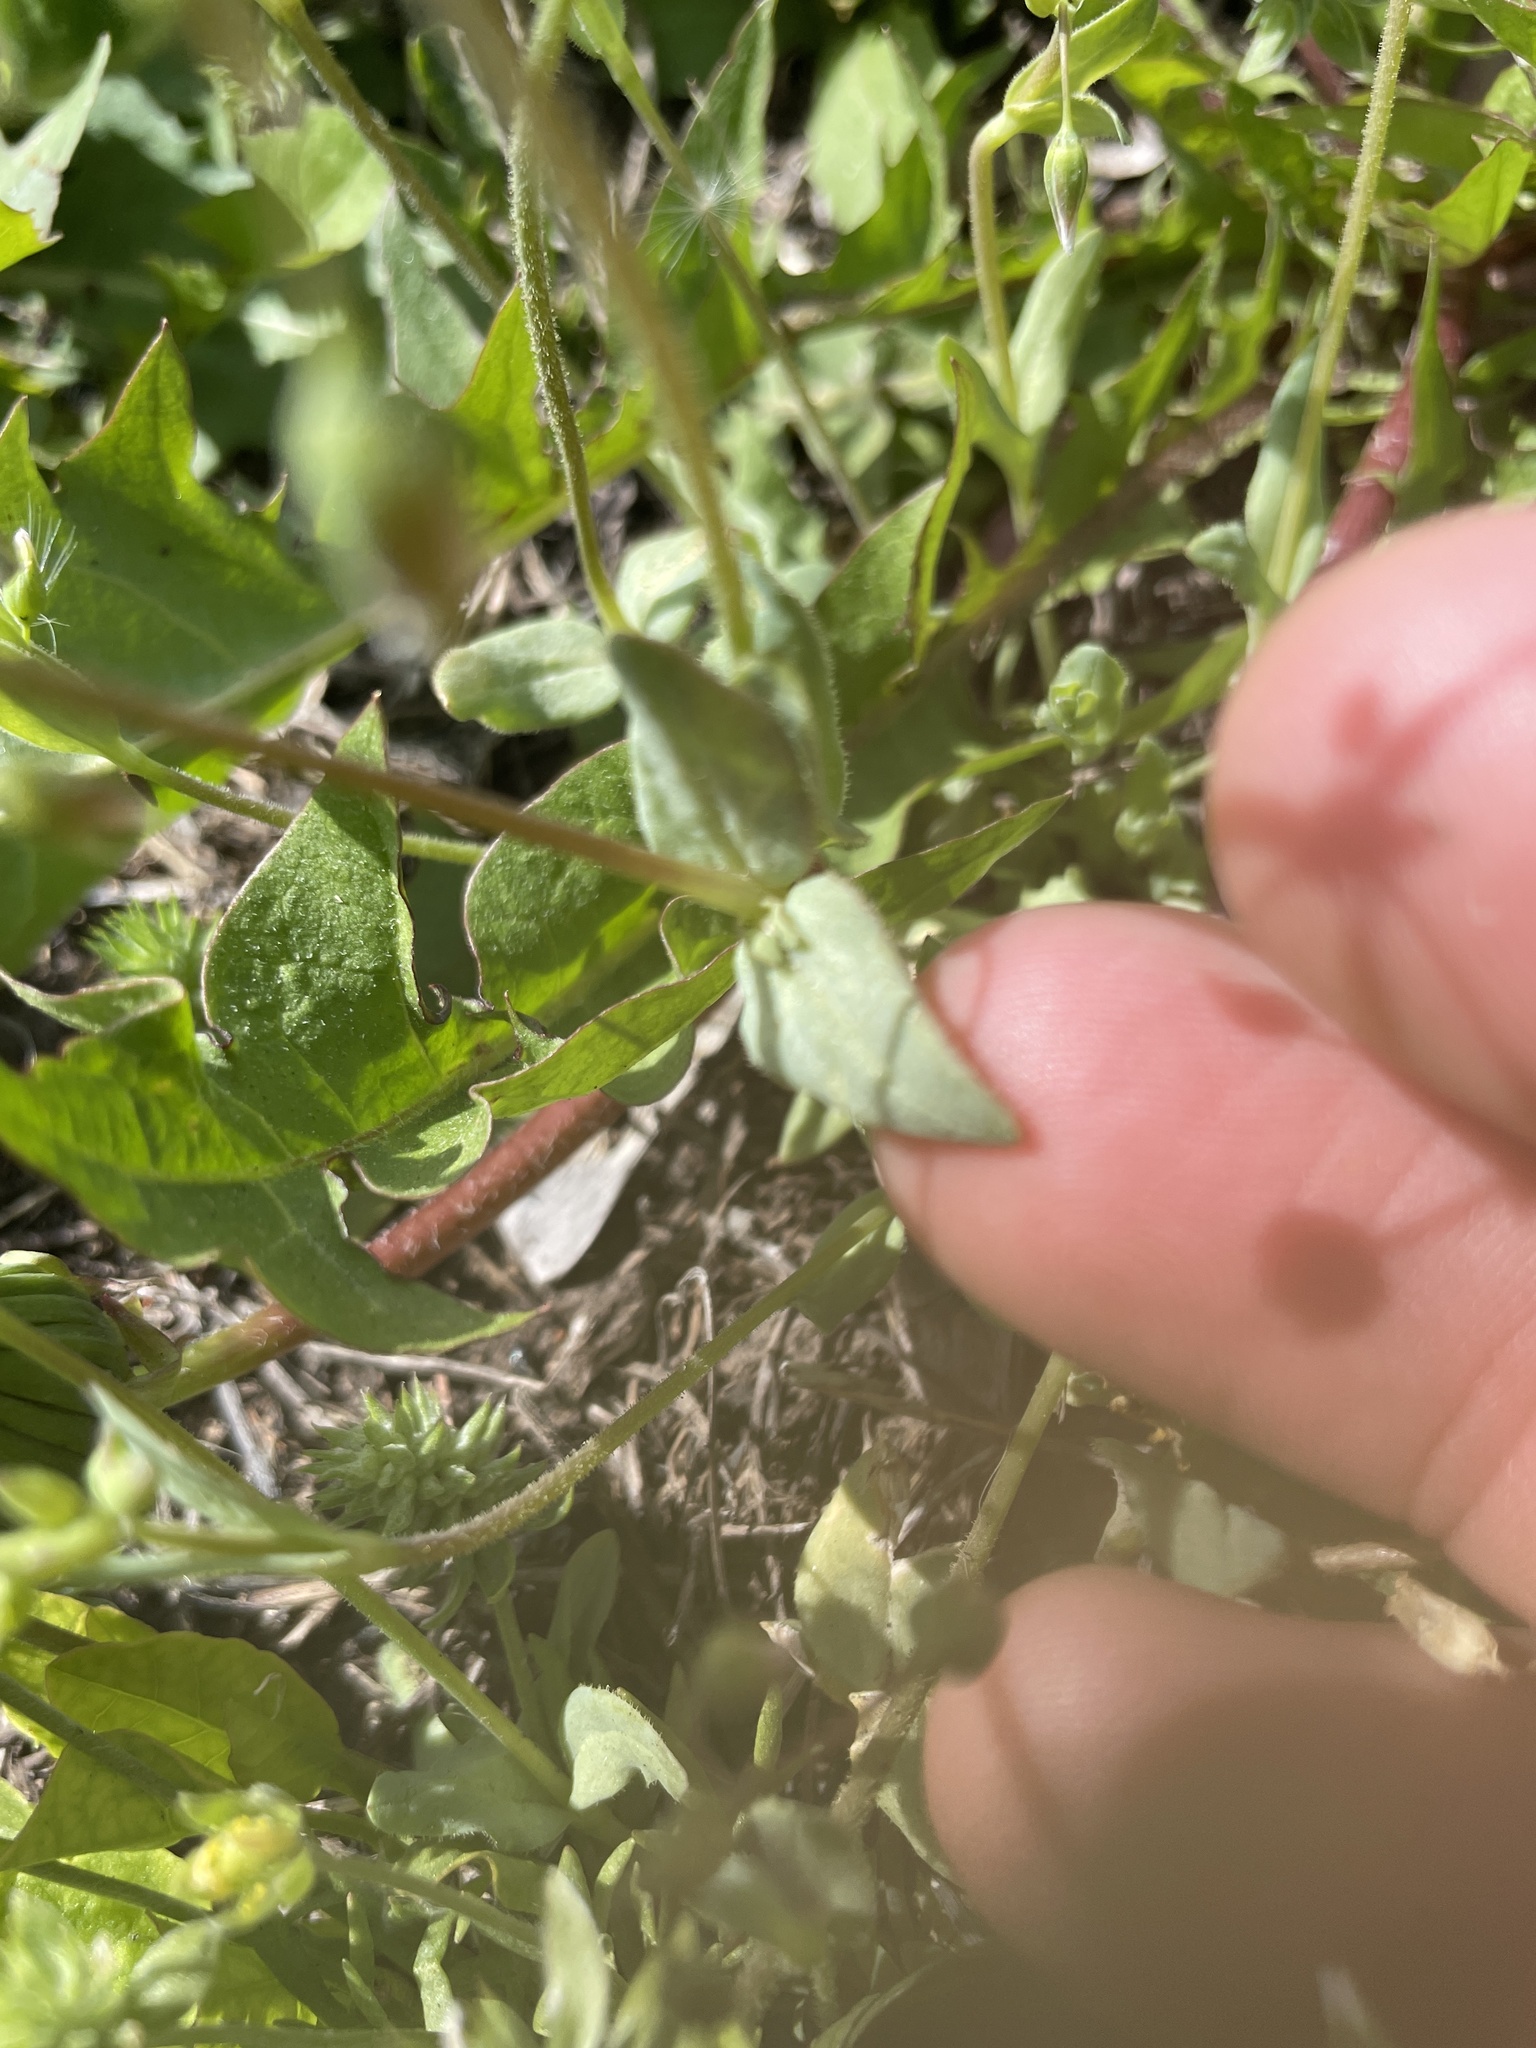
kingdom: Plantae
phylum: Tracheophyta
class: Magnoliopsida
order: Caryophyllales
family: Caryophyllaceae
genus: Holosteum
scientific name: Holosteum umbellatum
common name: Jagged chickweed
